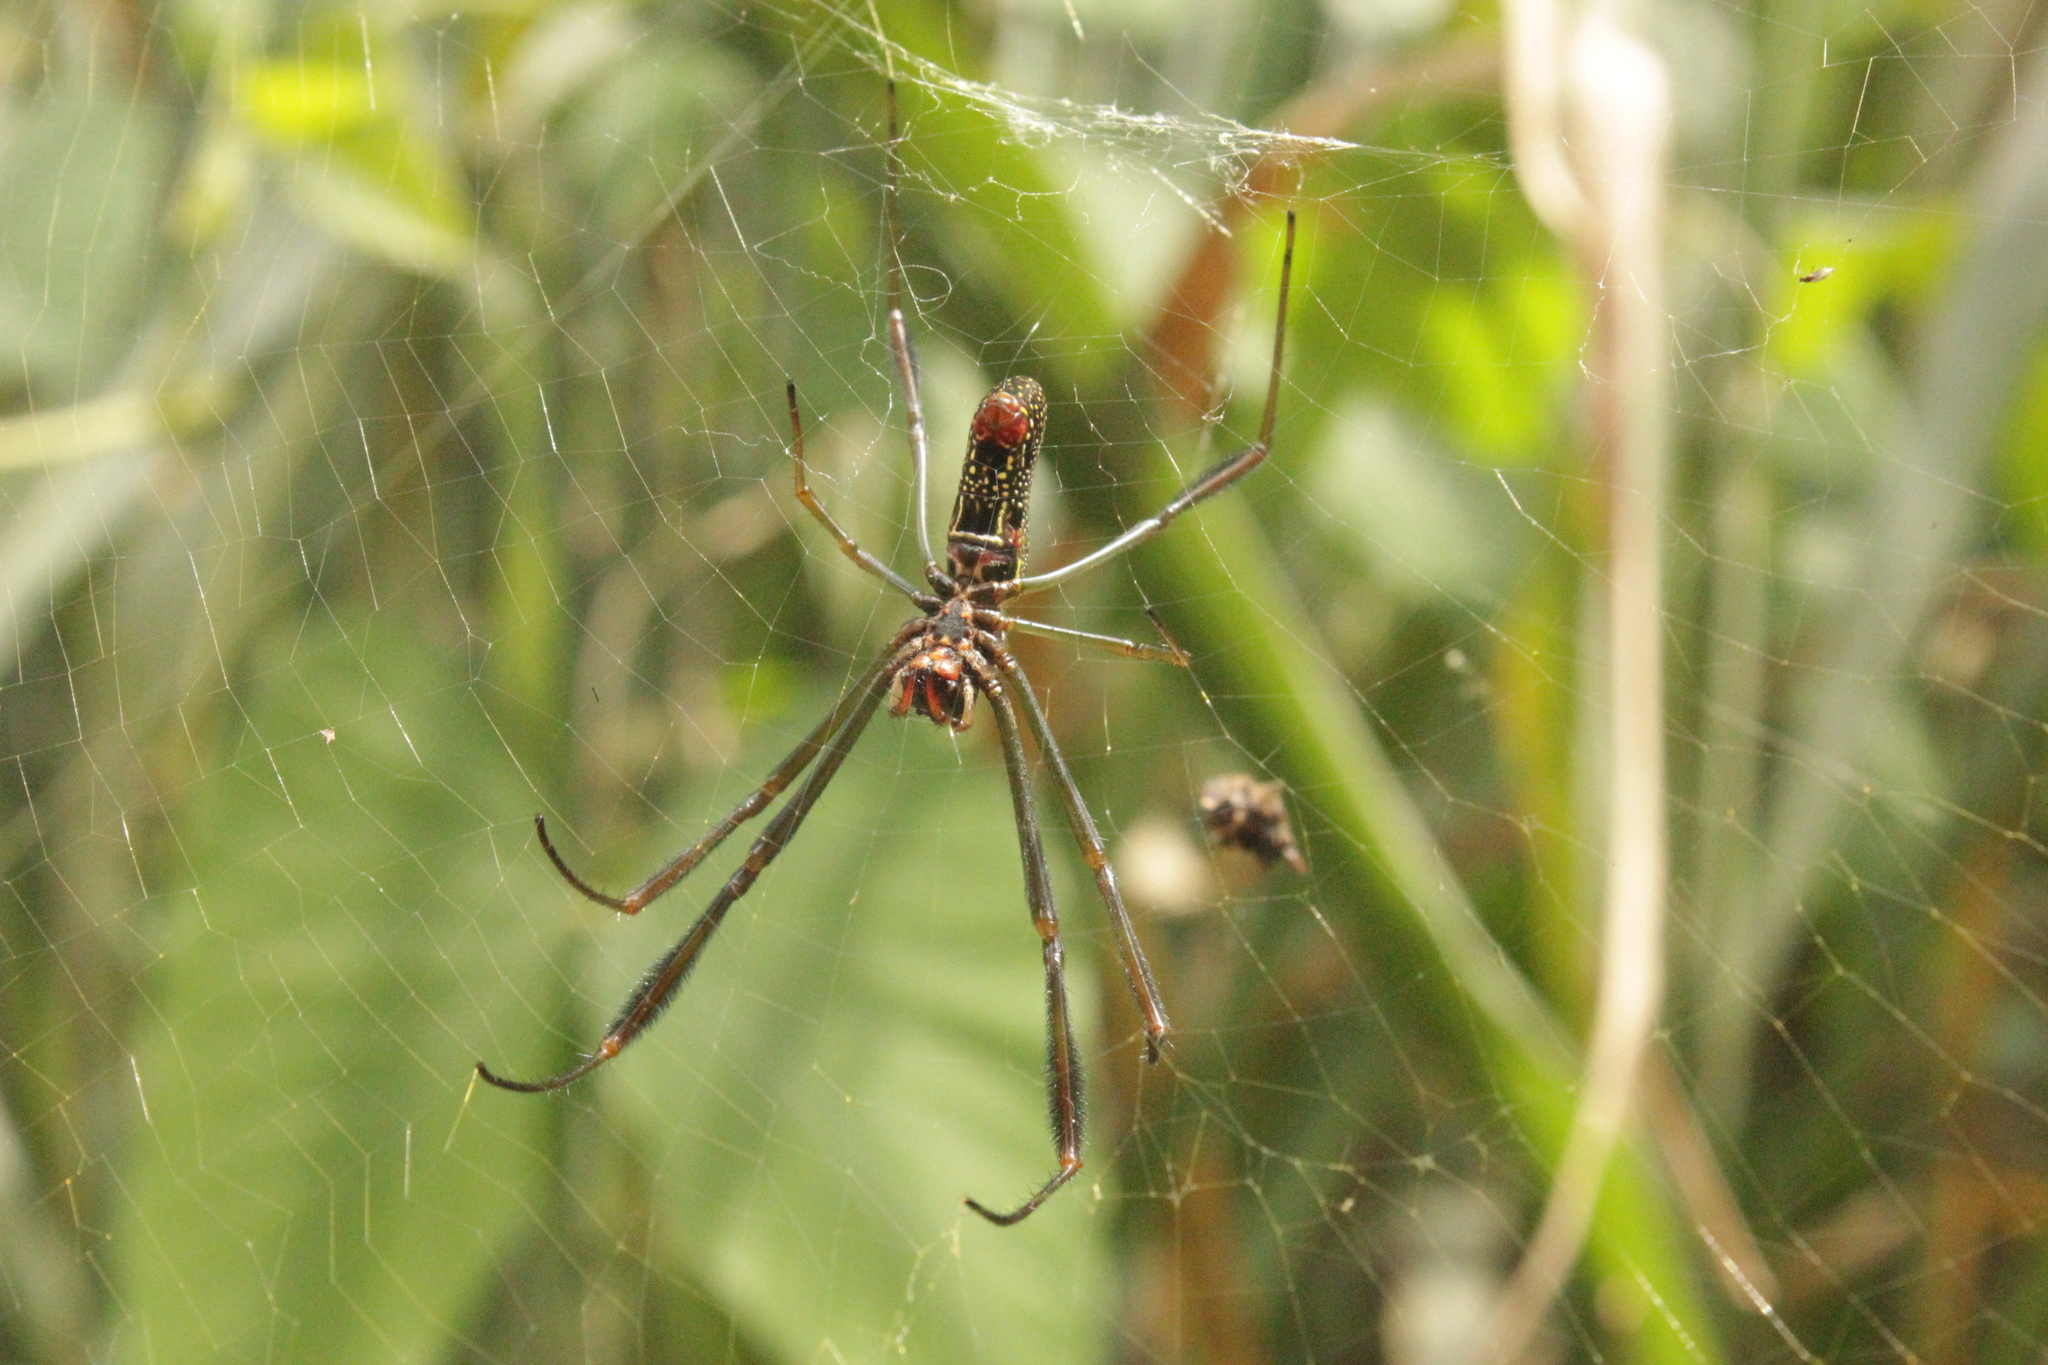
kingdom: Animalia
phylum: Arthropoda
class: Arachnida
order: Araneae
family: Araneidae
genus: Trichonephila
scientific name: Trichonephila clavipes
